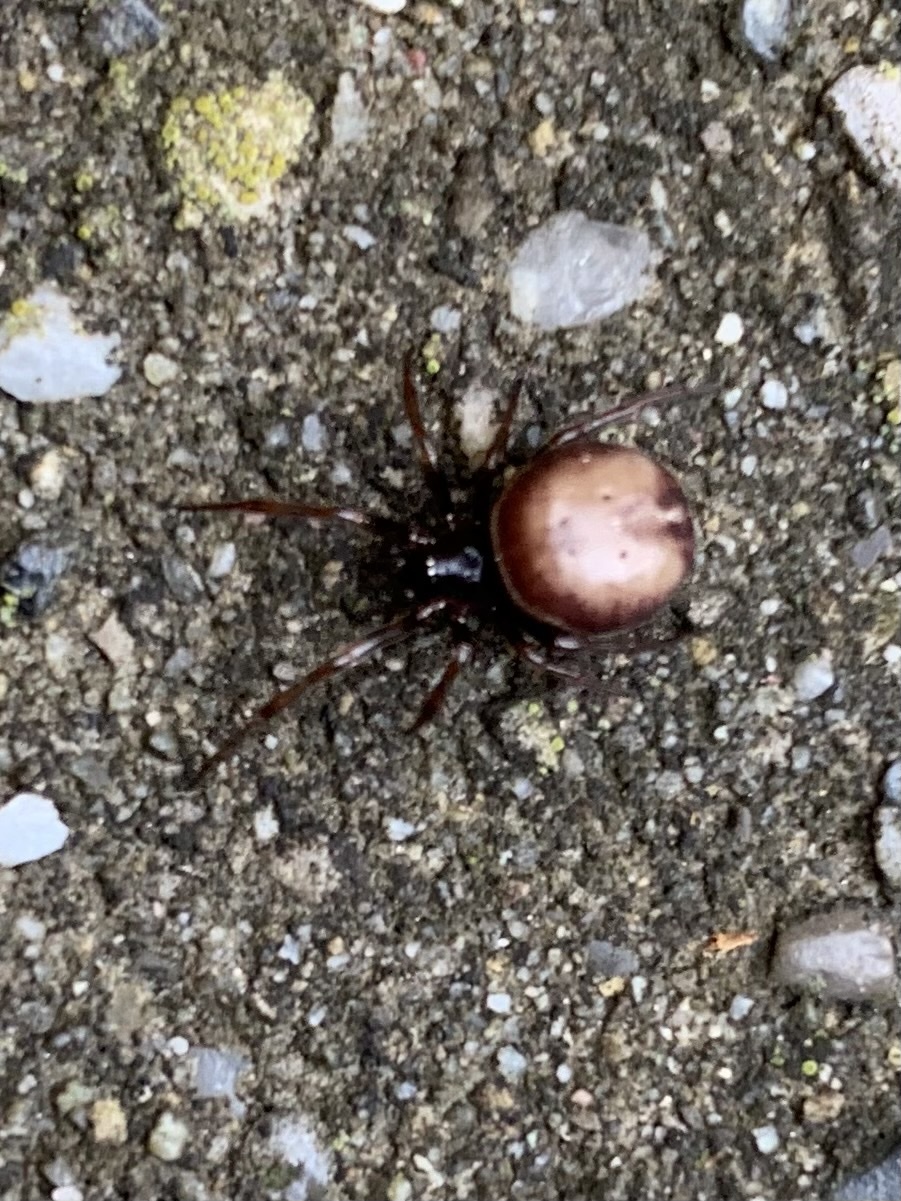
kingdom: Animalia
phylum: Arthropoda
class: Arachnida
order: Araneae
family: Theridiidae
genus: Steatoda
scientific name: Steatoda bipunctata
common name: False widow
